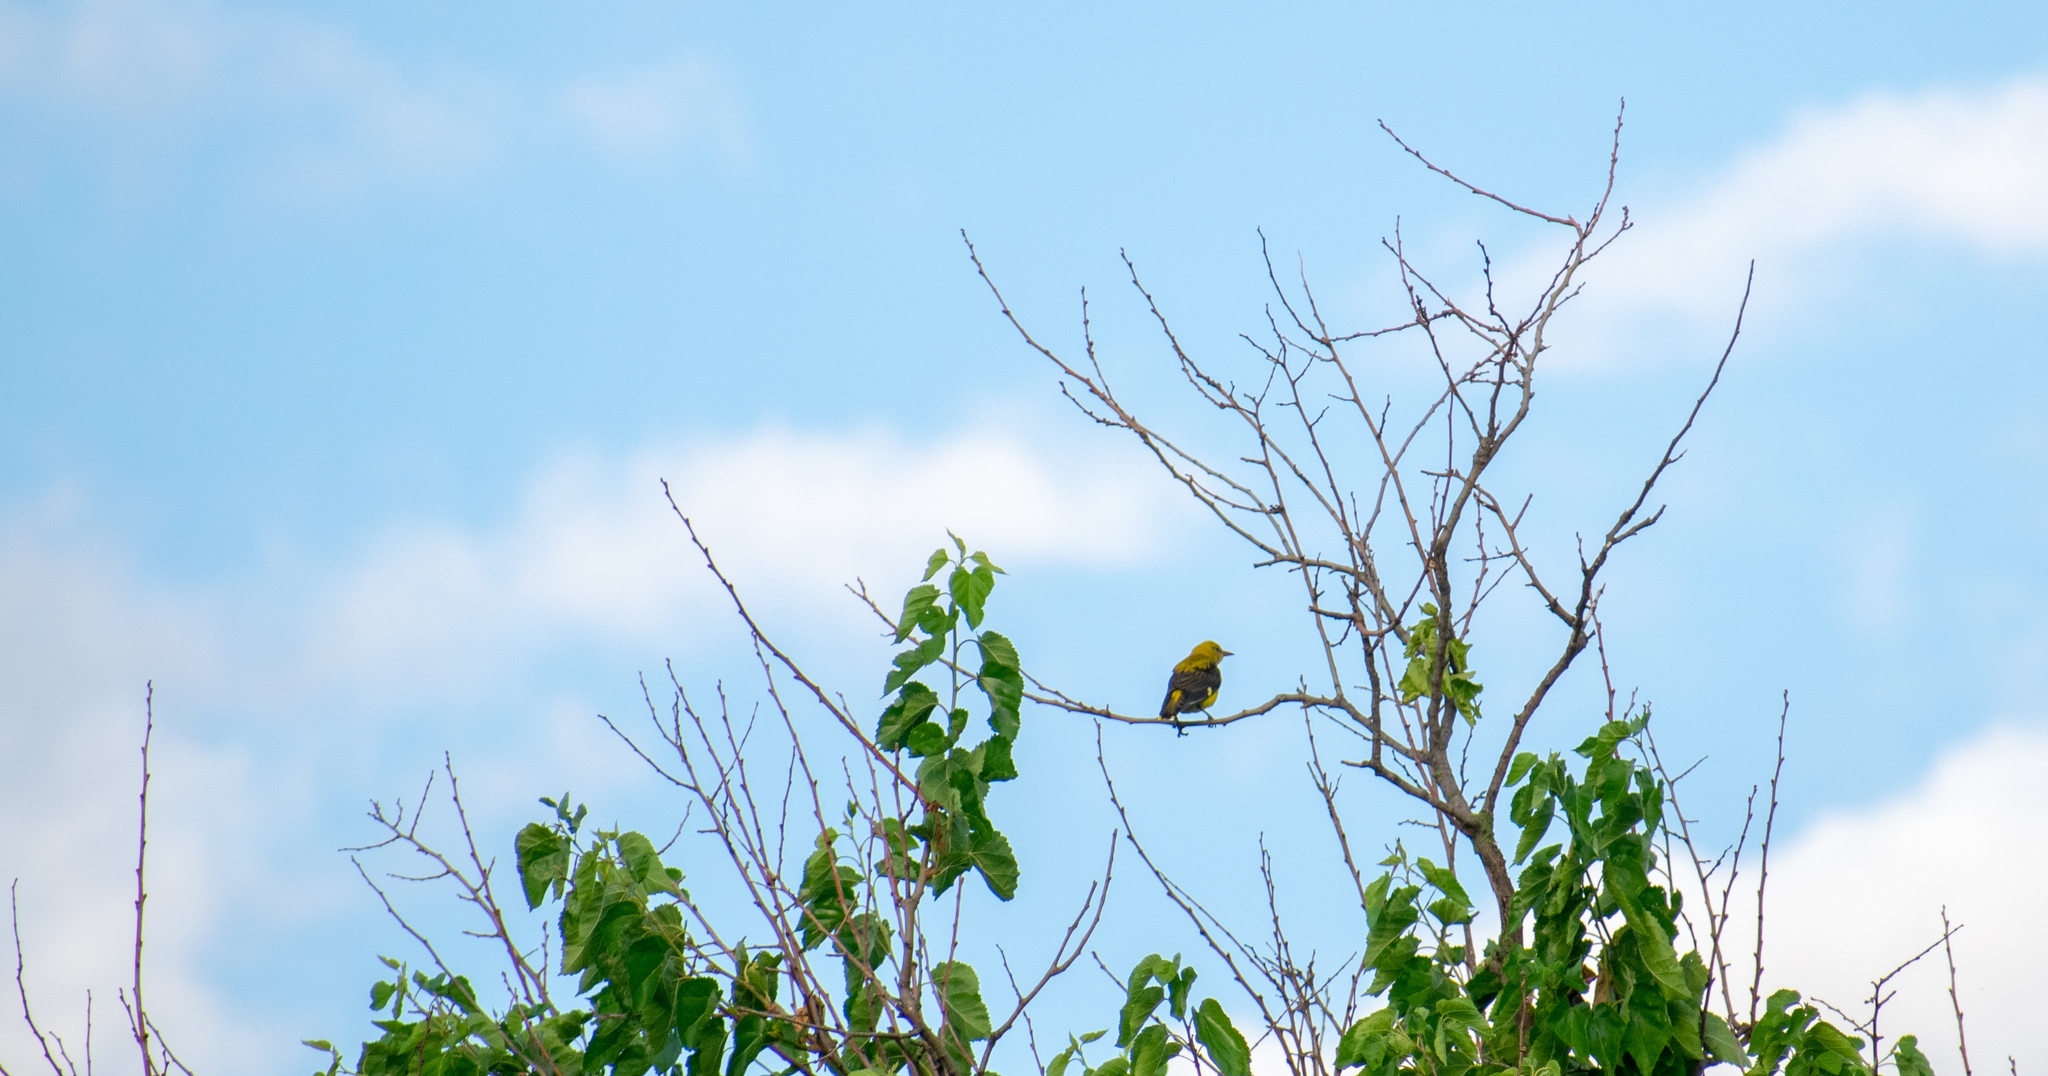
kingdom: Animalia
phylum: Chordata
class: Aves
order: Passeriformes
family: Oriolidae
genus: Oriolus
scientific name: Oriolus oriolus
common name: Eurasian golden oriole
